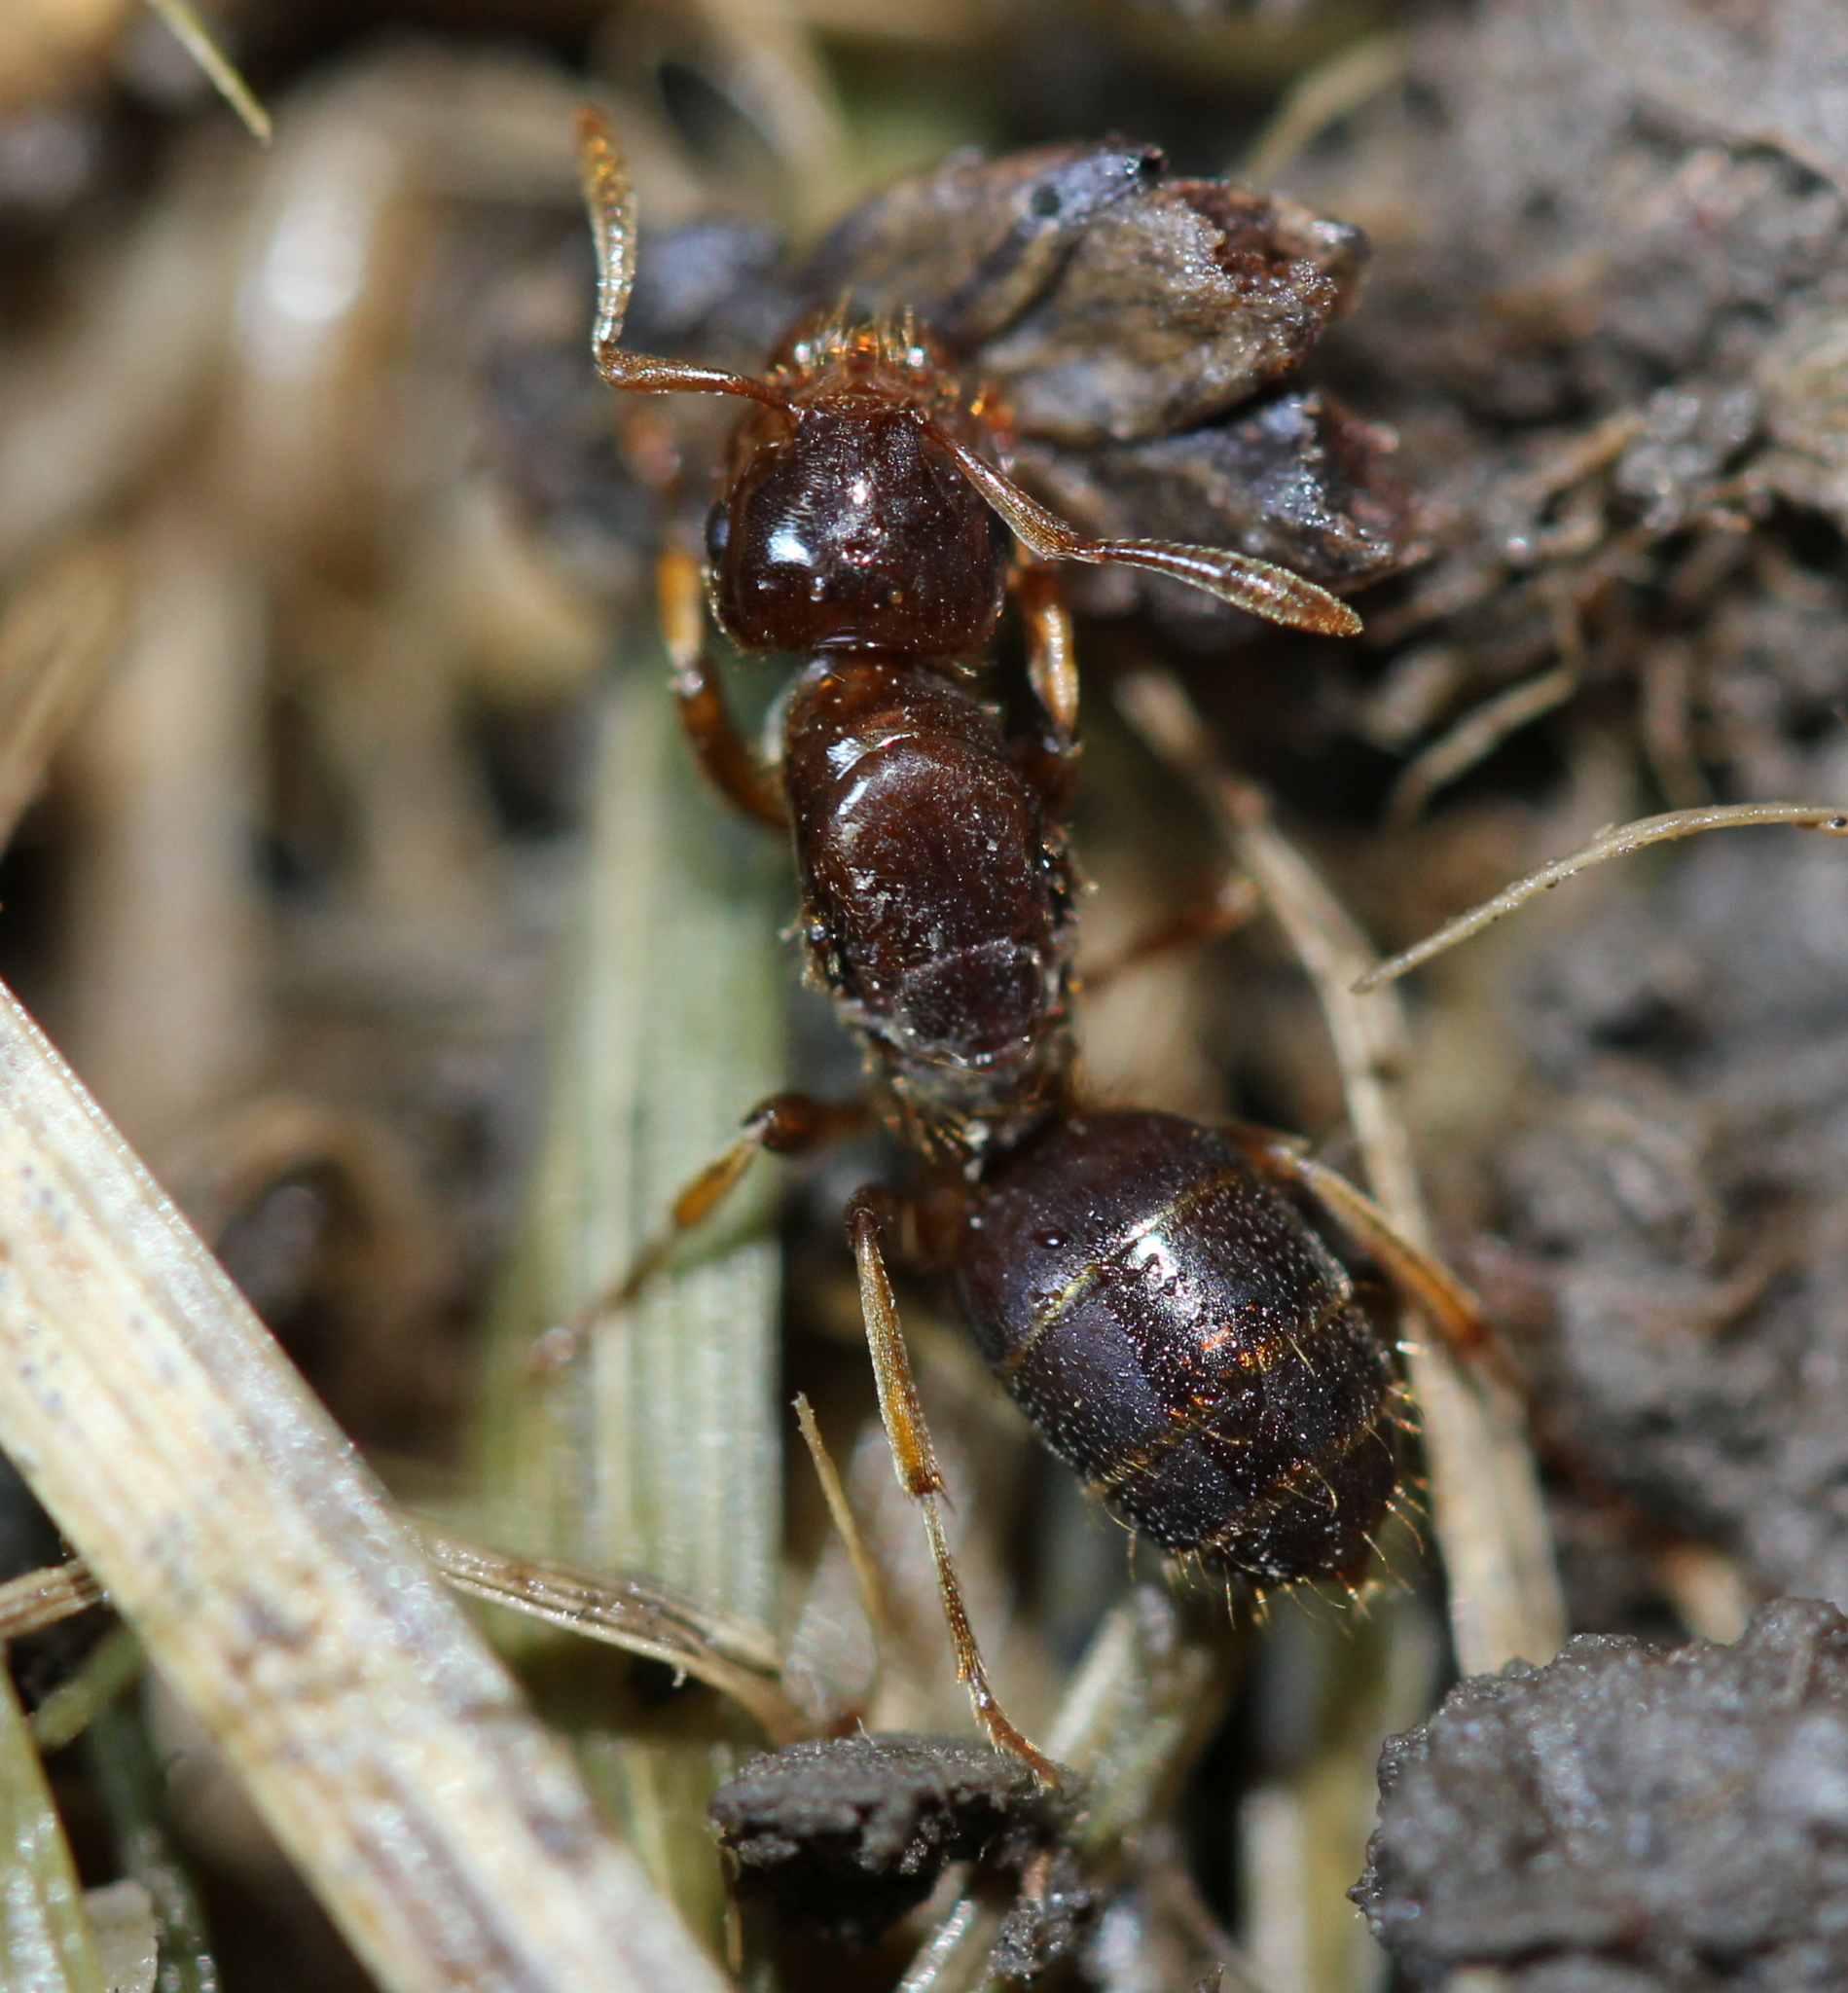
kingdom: Animalia
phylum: Arthropoda
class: Insecta
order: Hymenoptera
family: Formicidae
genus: Lasius
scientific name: Lasius claviger
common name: Common citronella ant
